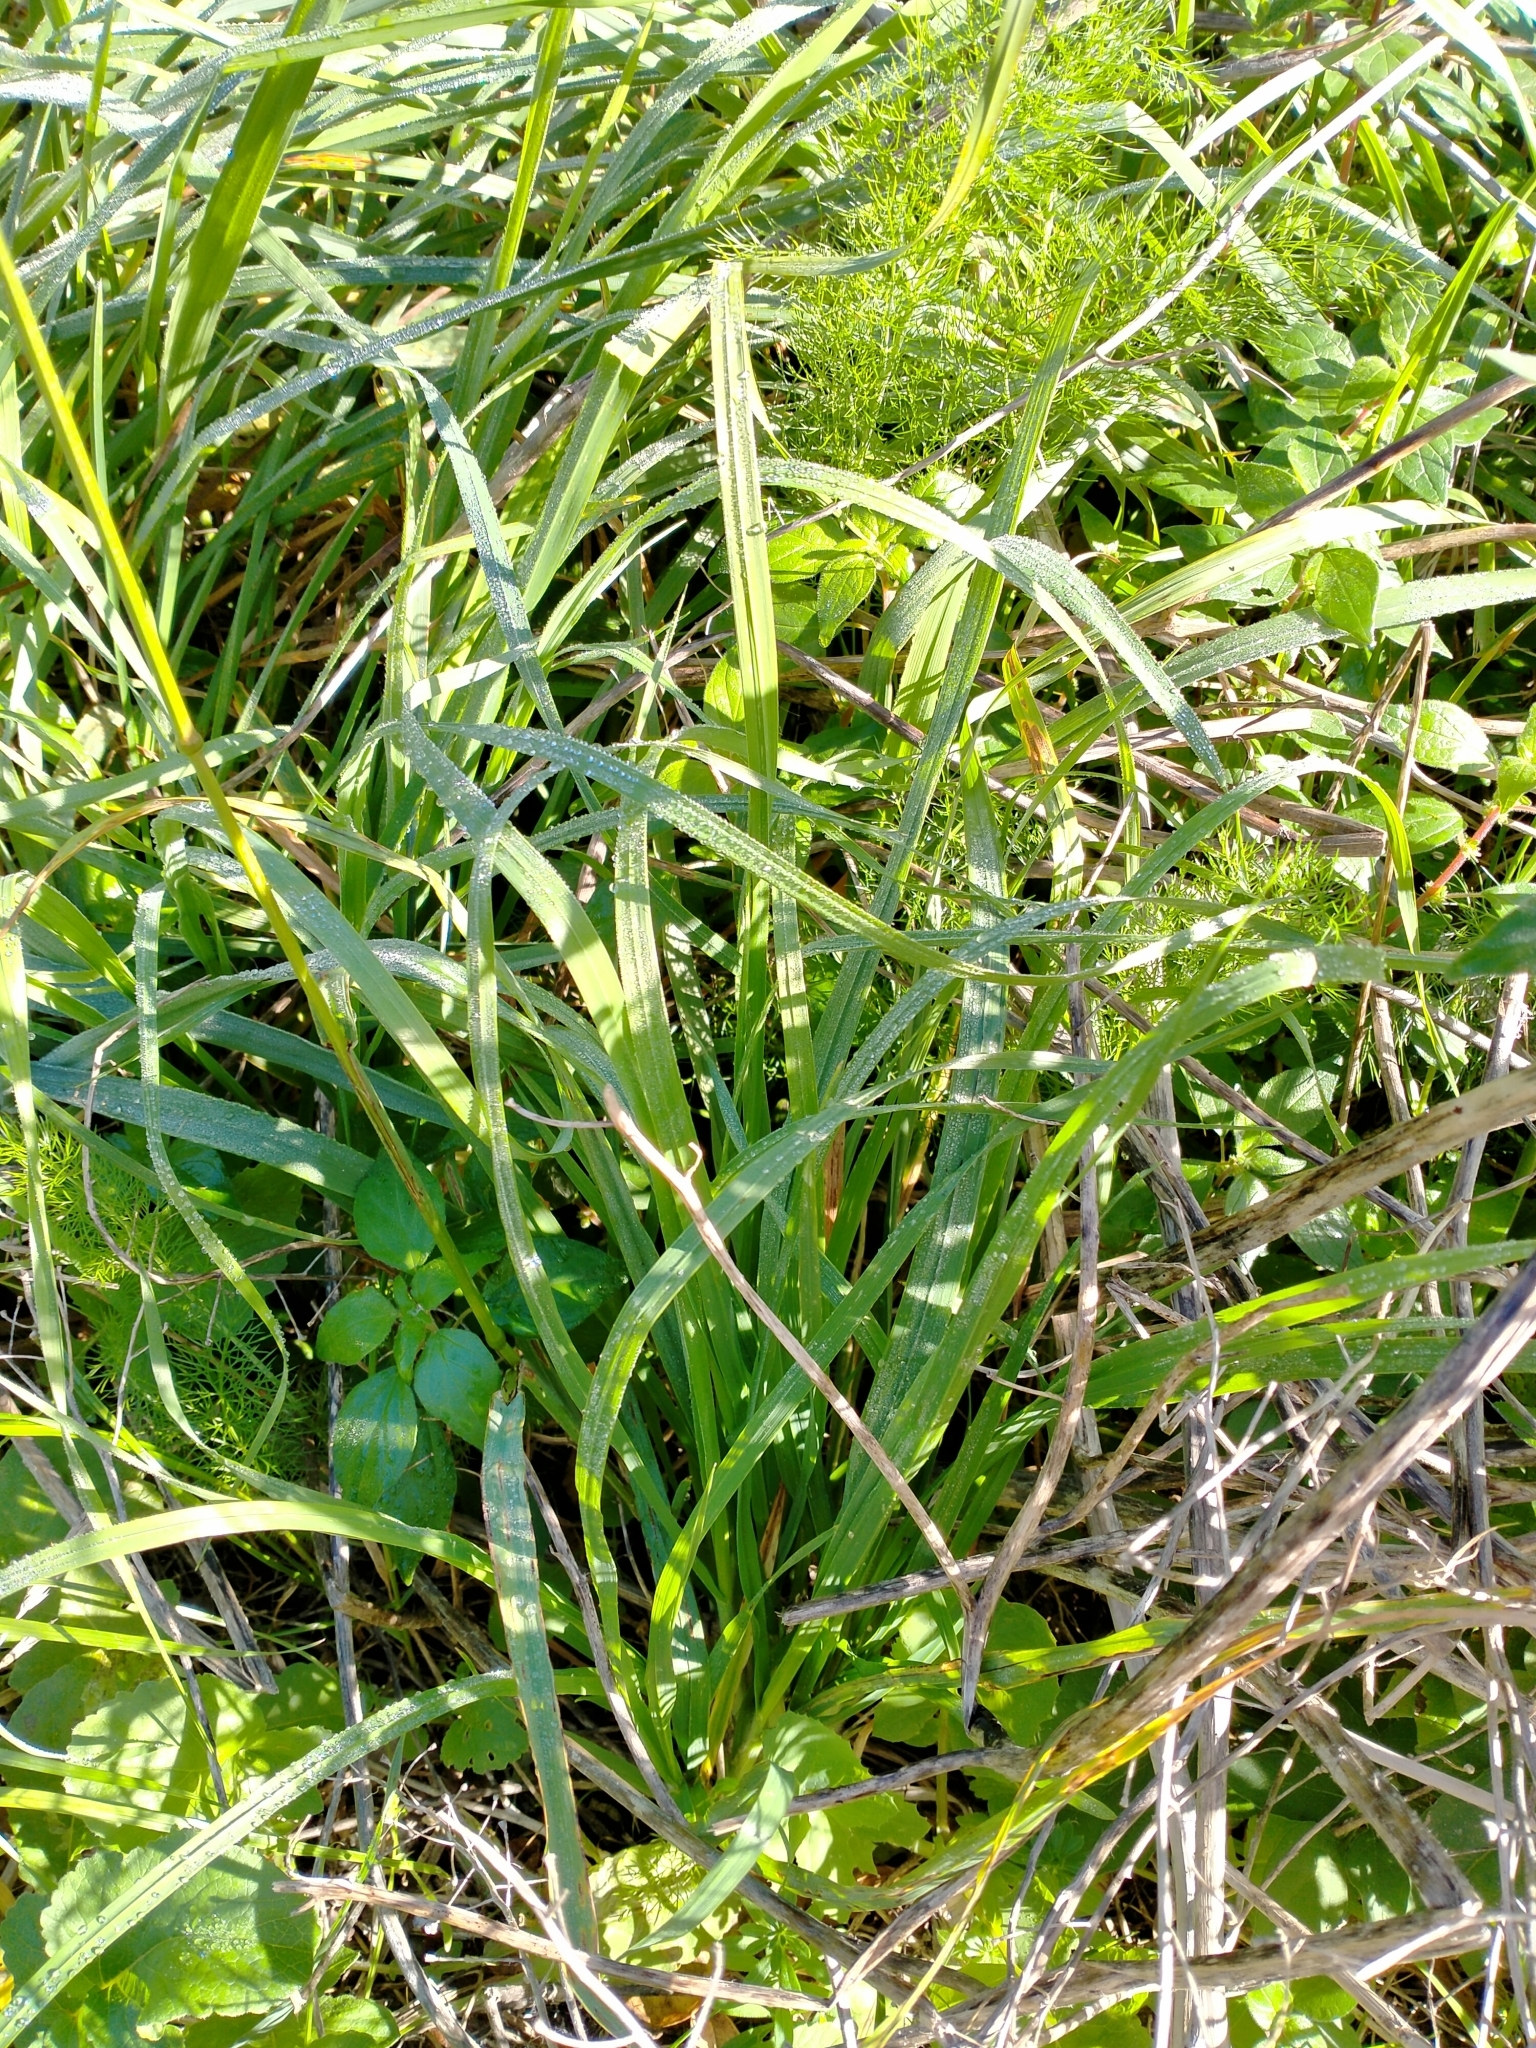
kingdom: Plantae
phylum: Tracheophyta
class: Liliopsida
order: Poales
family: Poaceae
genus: Bromus
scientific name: Bromus catharticus
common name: Rescuegrass
